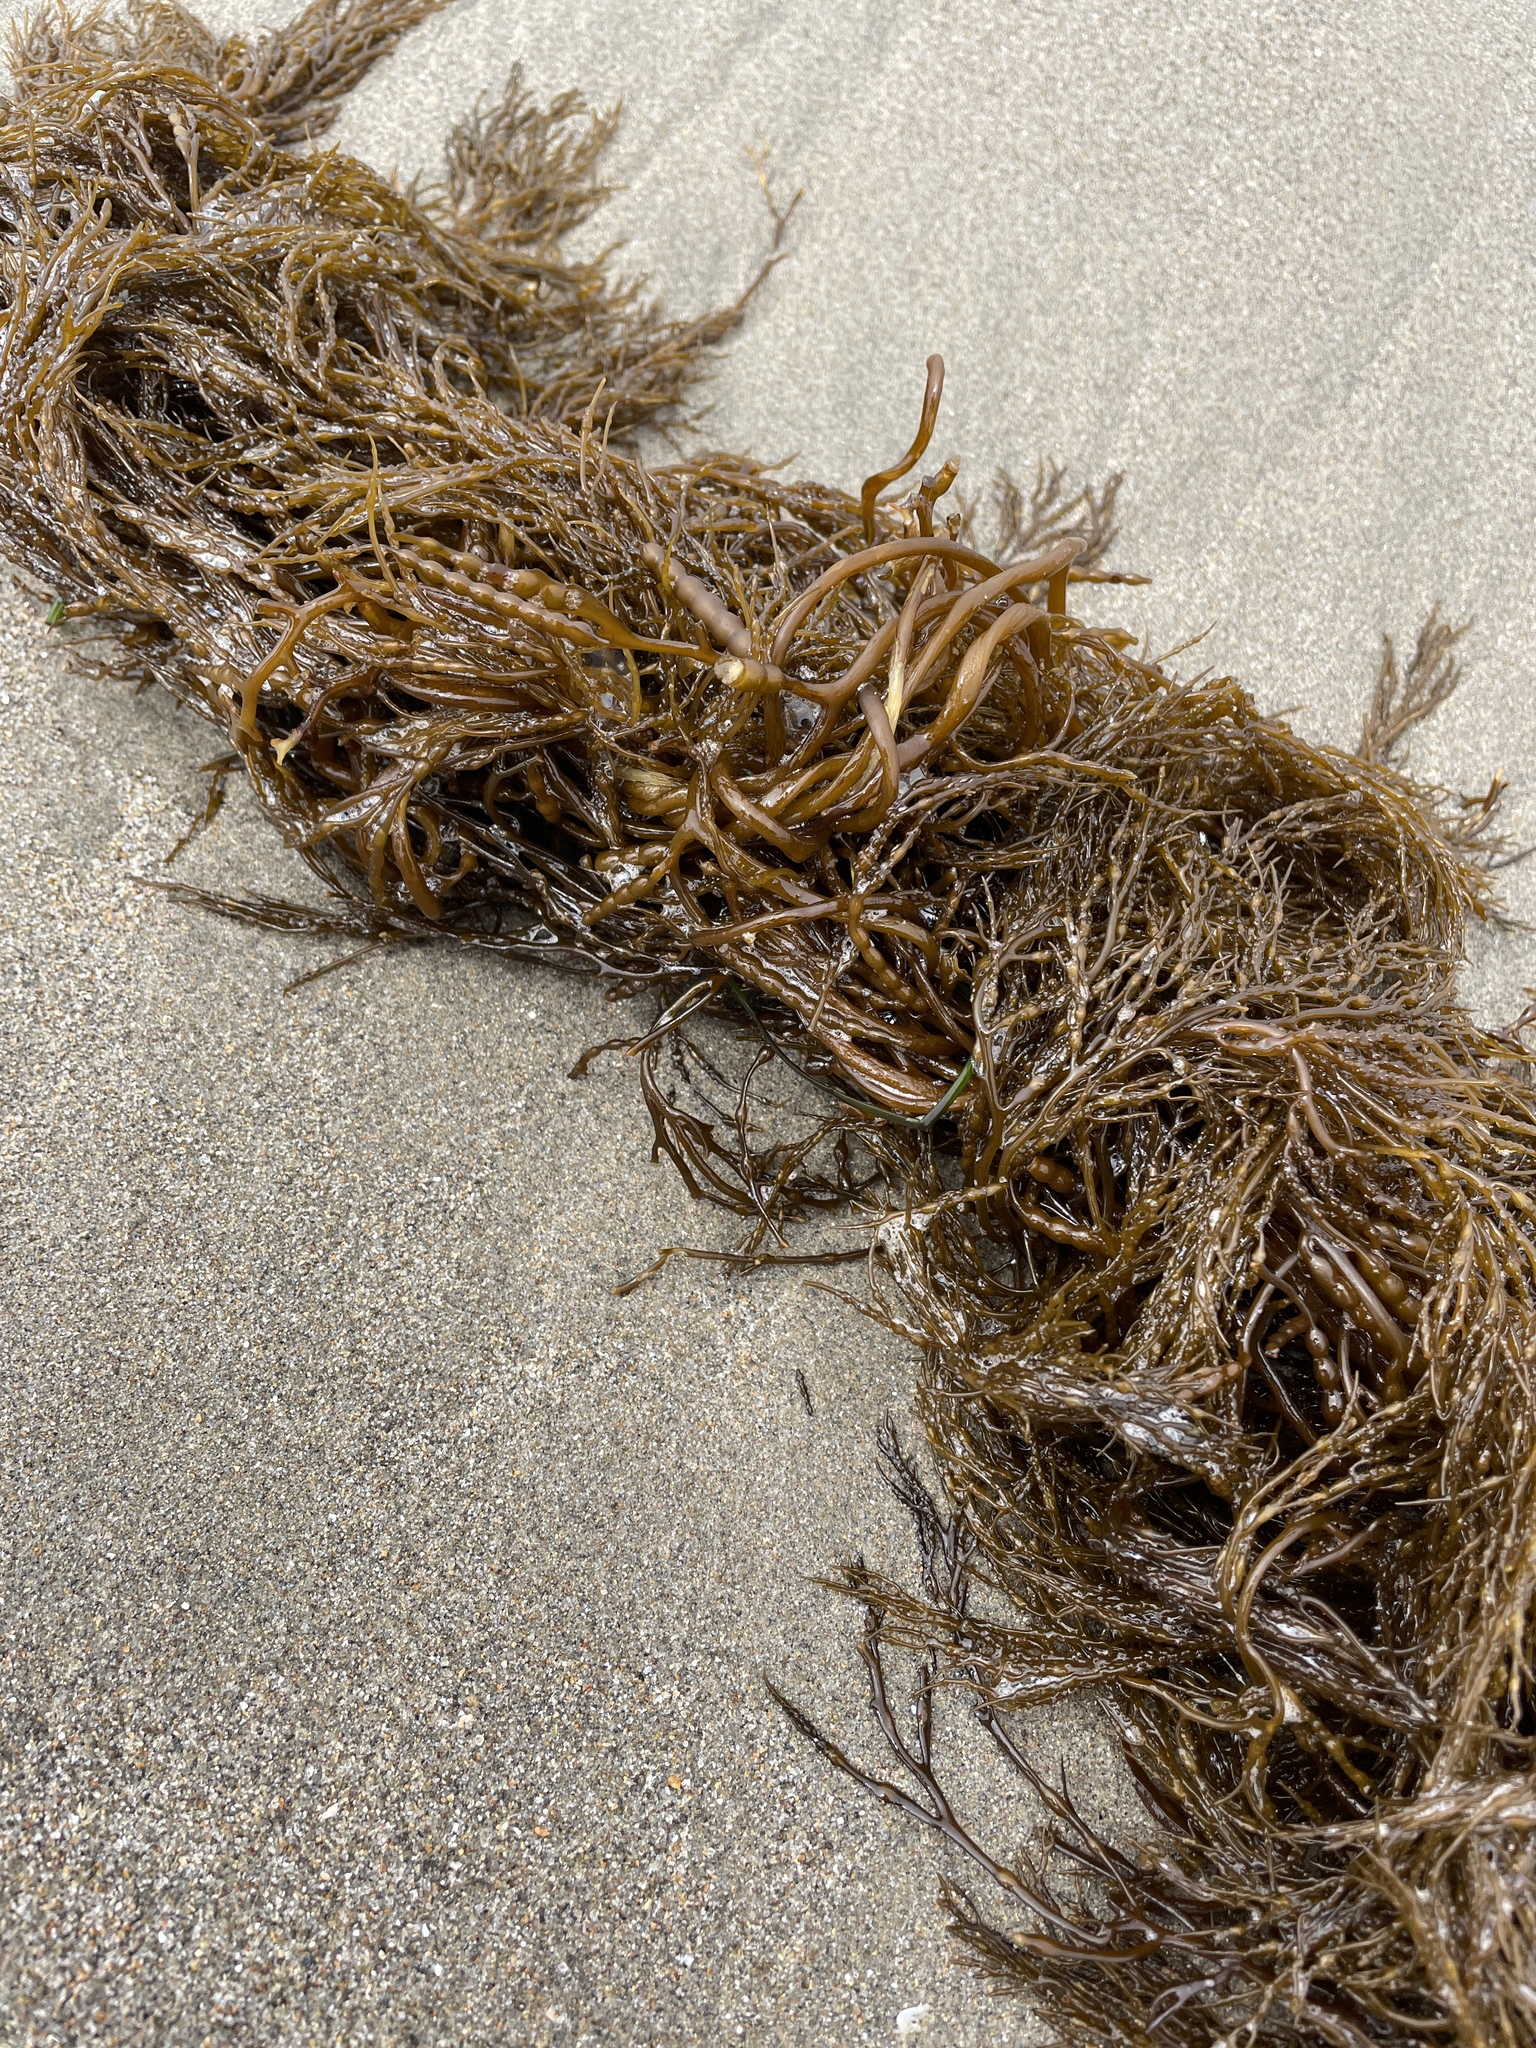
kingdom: Chromista
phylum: Ochrophyta
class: Phaeophyceae
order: Fucales
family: Sargassaceae
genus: Stephanocystis
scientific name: Stephanocystis
